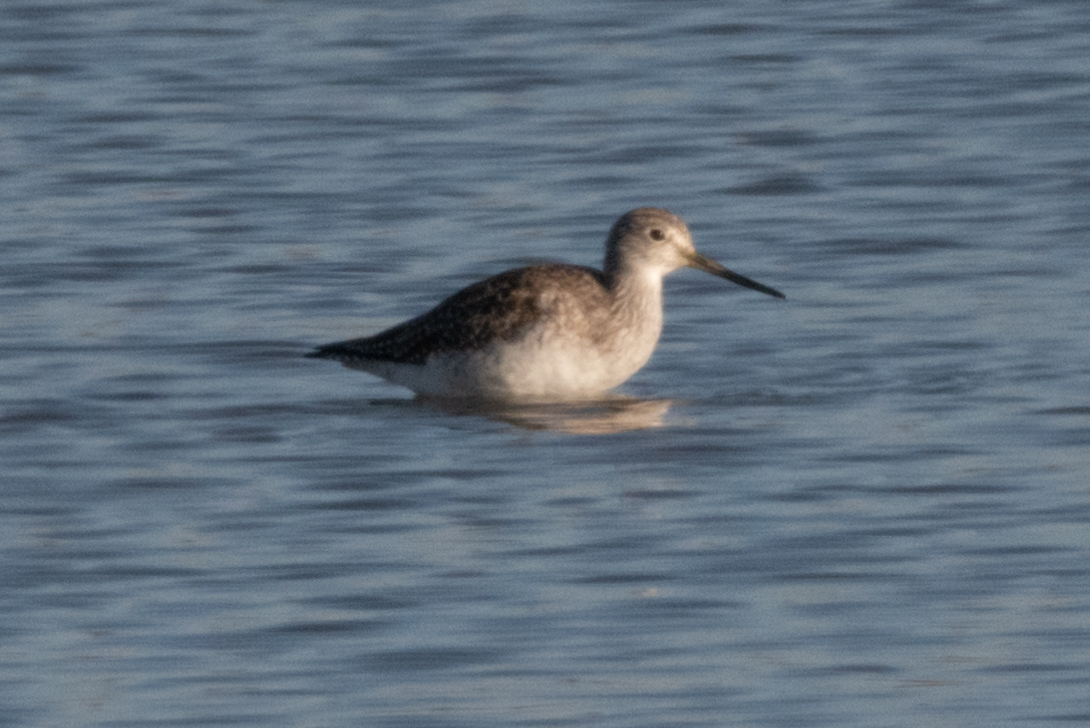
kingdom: Animalia
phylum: Chordata
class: Aves
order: Charadriiformes
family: Scolopacidae
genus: Tringa
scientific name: Tringa melanoleuca
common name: Greater yellowlegs
